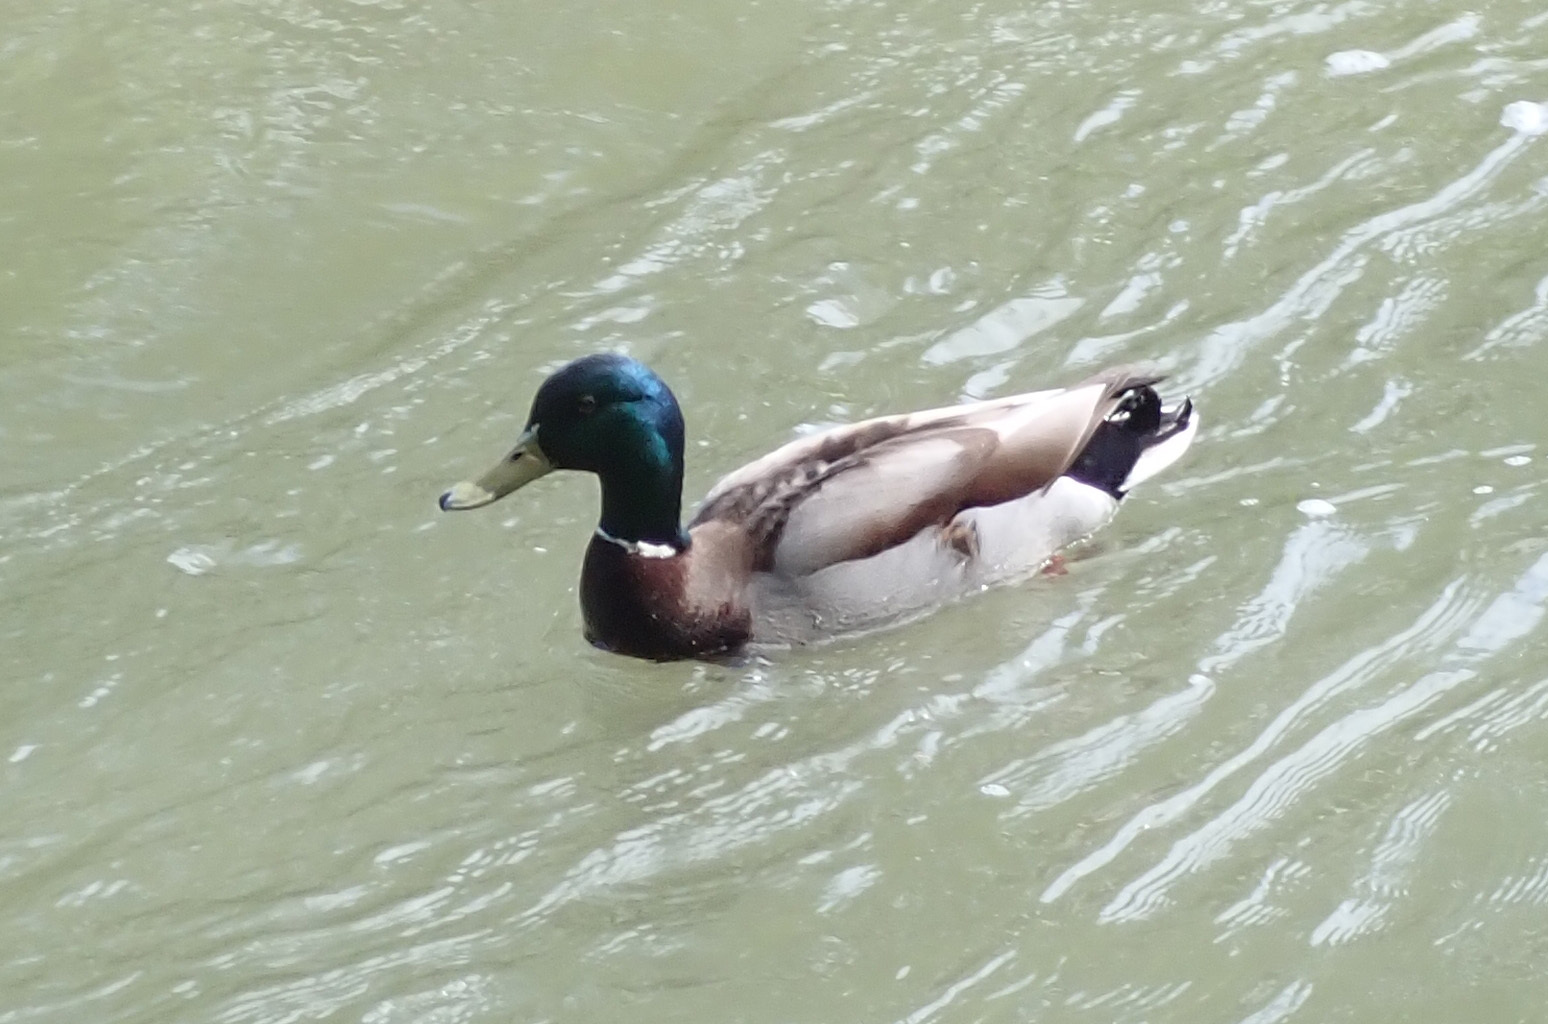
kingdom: Animalia
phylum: Chordata
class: Aves
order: Anseriformes
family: Anatidae
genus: Anas
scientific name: Anas platyrhynchos
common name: Mallard
